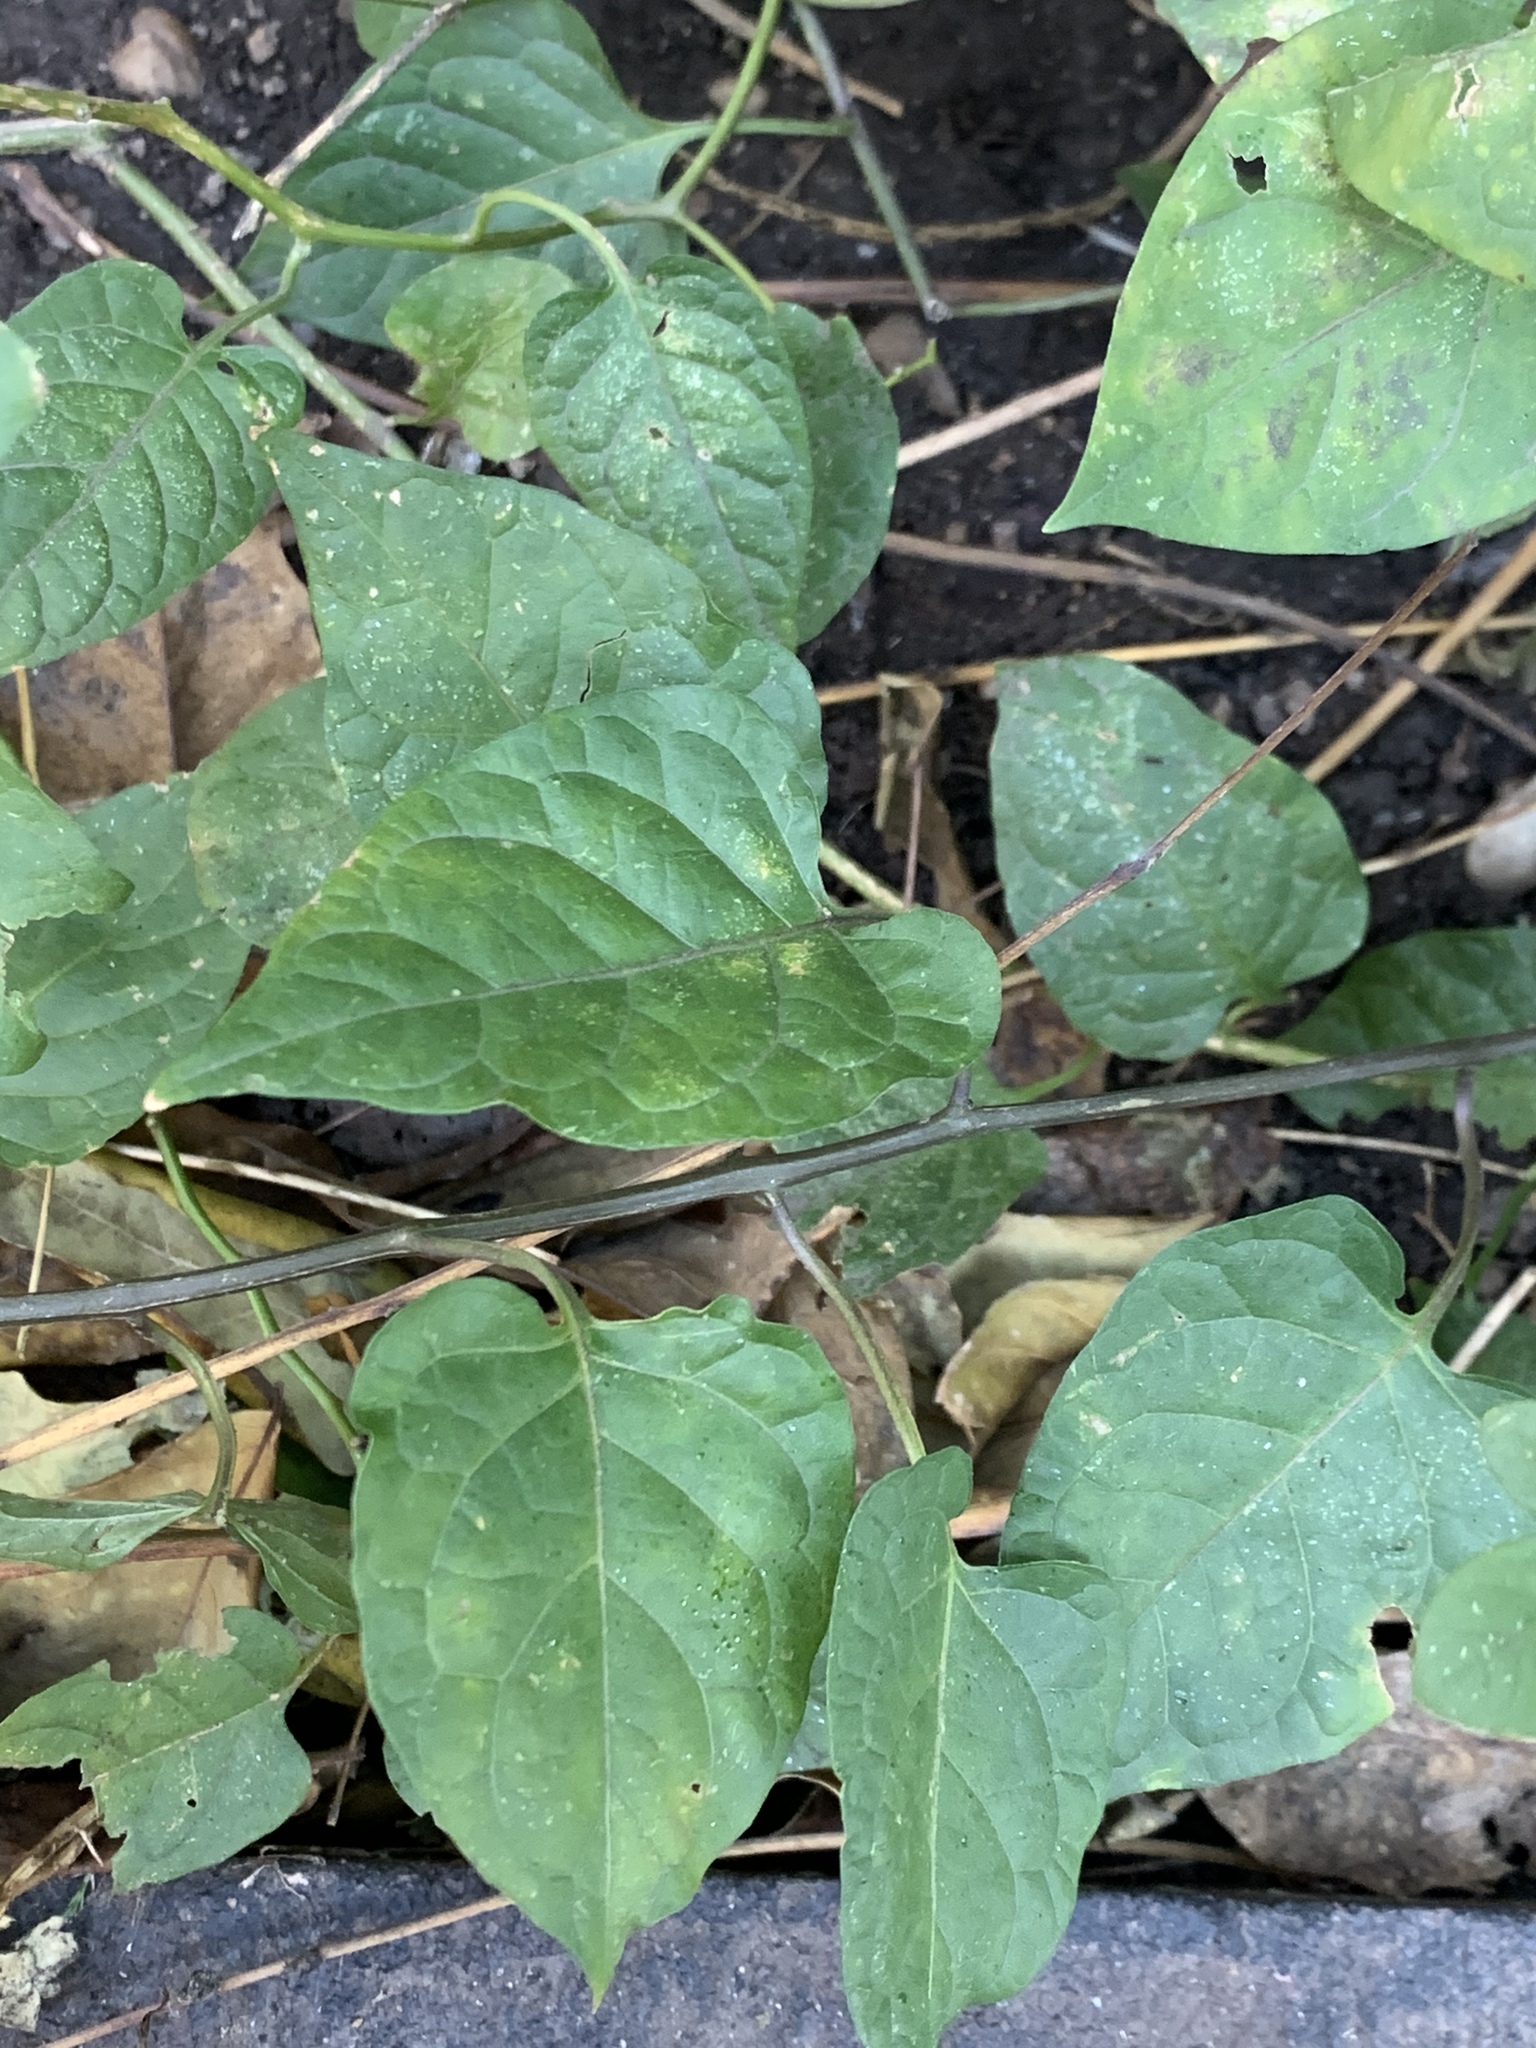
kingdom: Plantae
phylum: Tracheophyta
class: Magnoliopsida
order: Solanales
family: Solanaceae
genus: Solanum
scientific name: Solanum dulcamara
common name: Climbing nightshade
